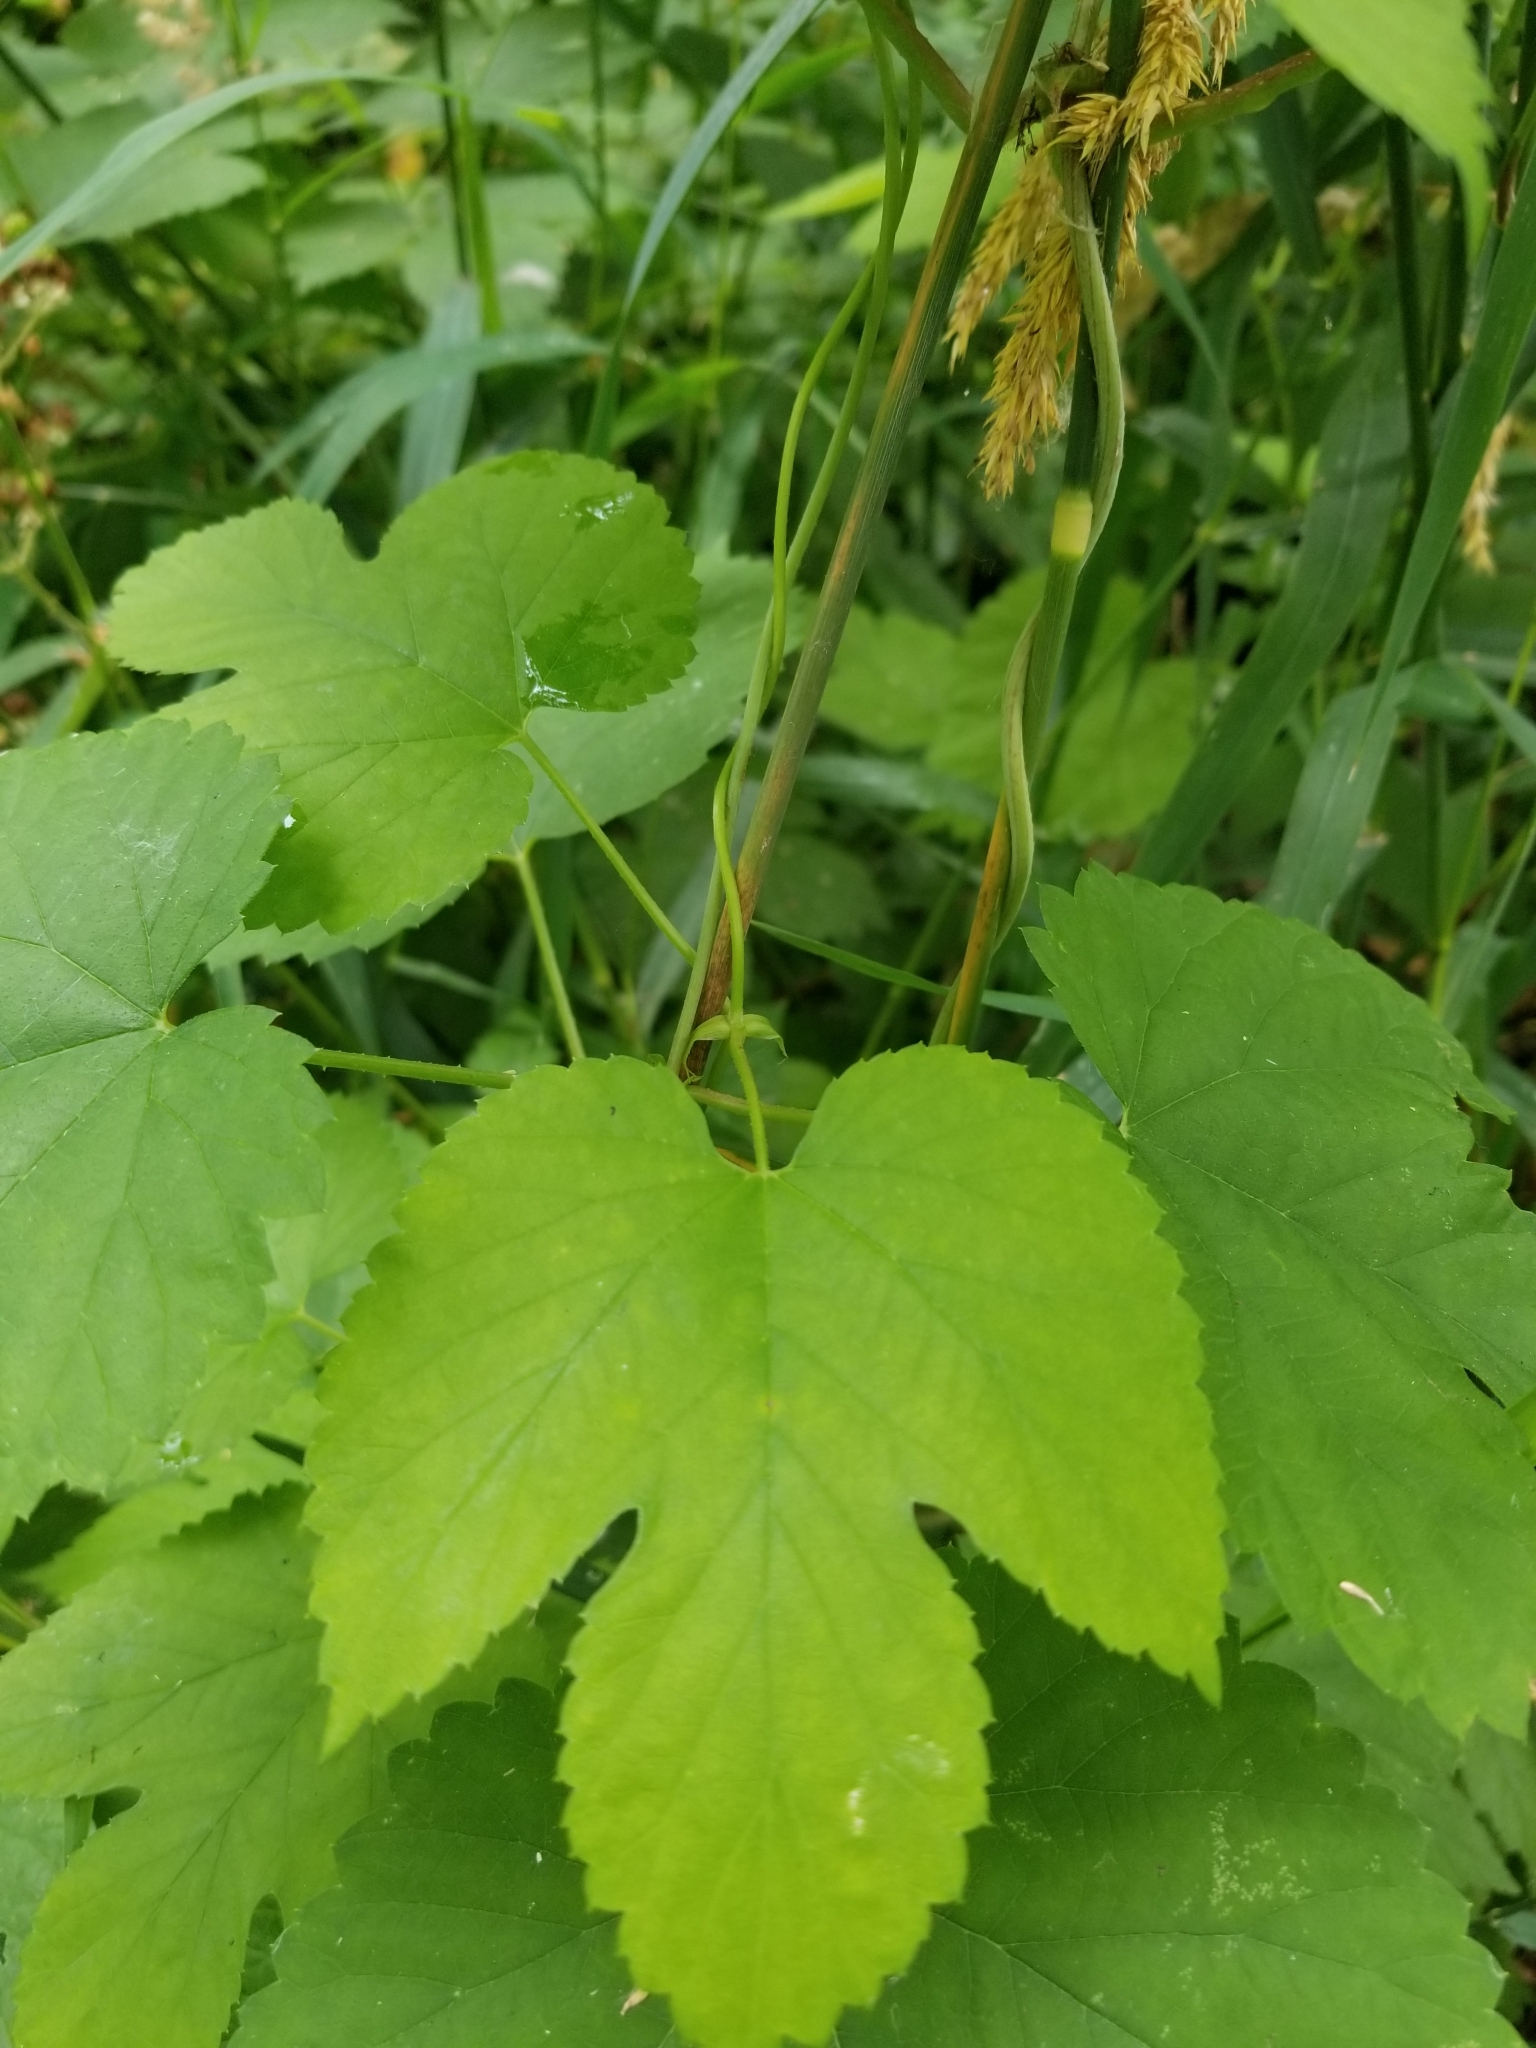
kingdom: Plantae
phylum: Tracheophyta
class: Magnoliopsida
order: Rosales
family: Cannabaceae
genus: Humulus
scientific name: Humulus lupulus
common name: Hop
